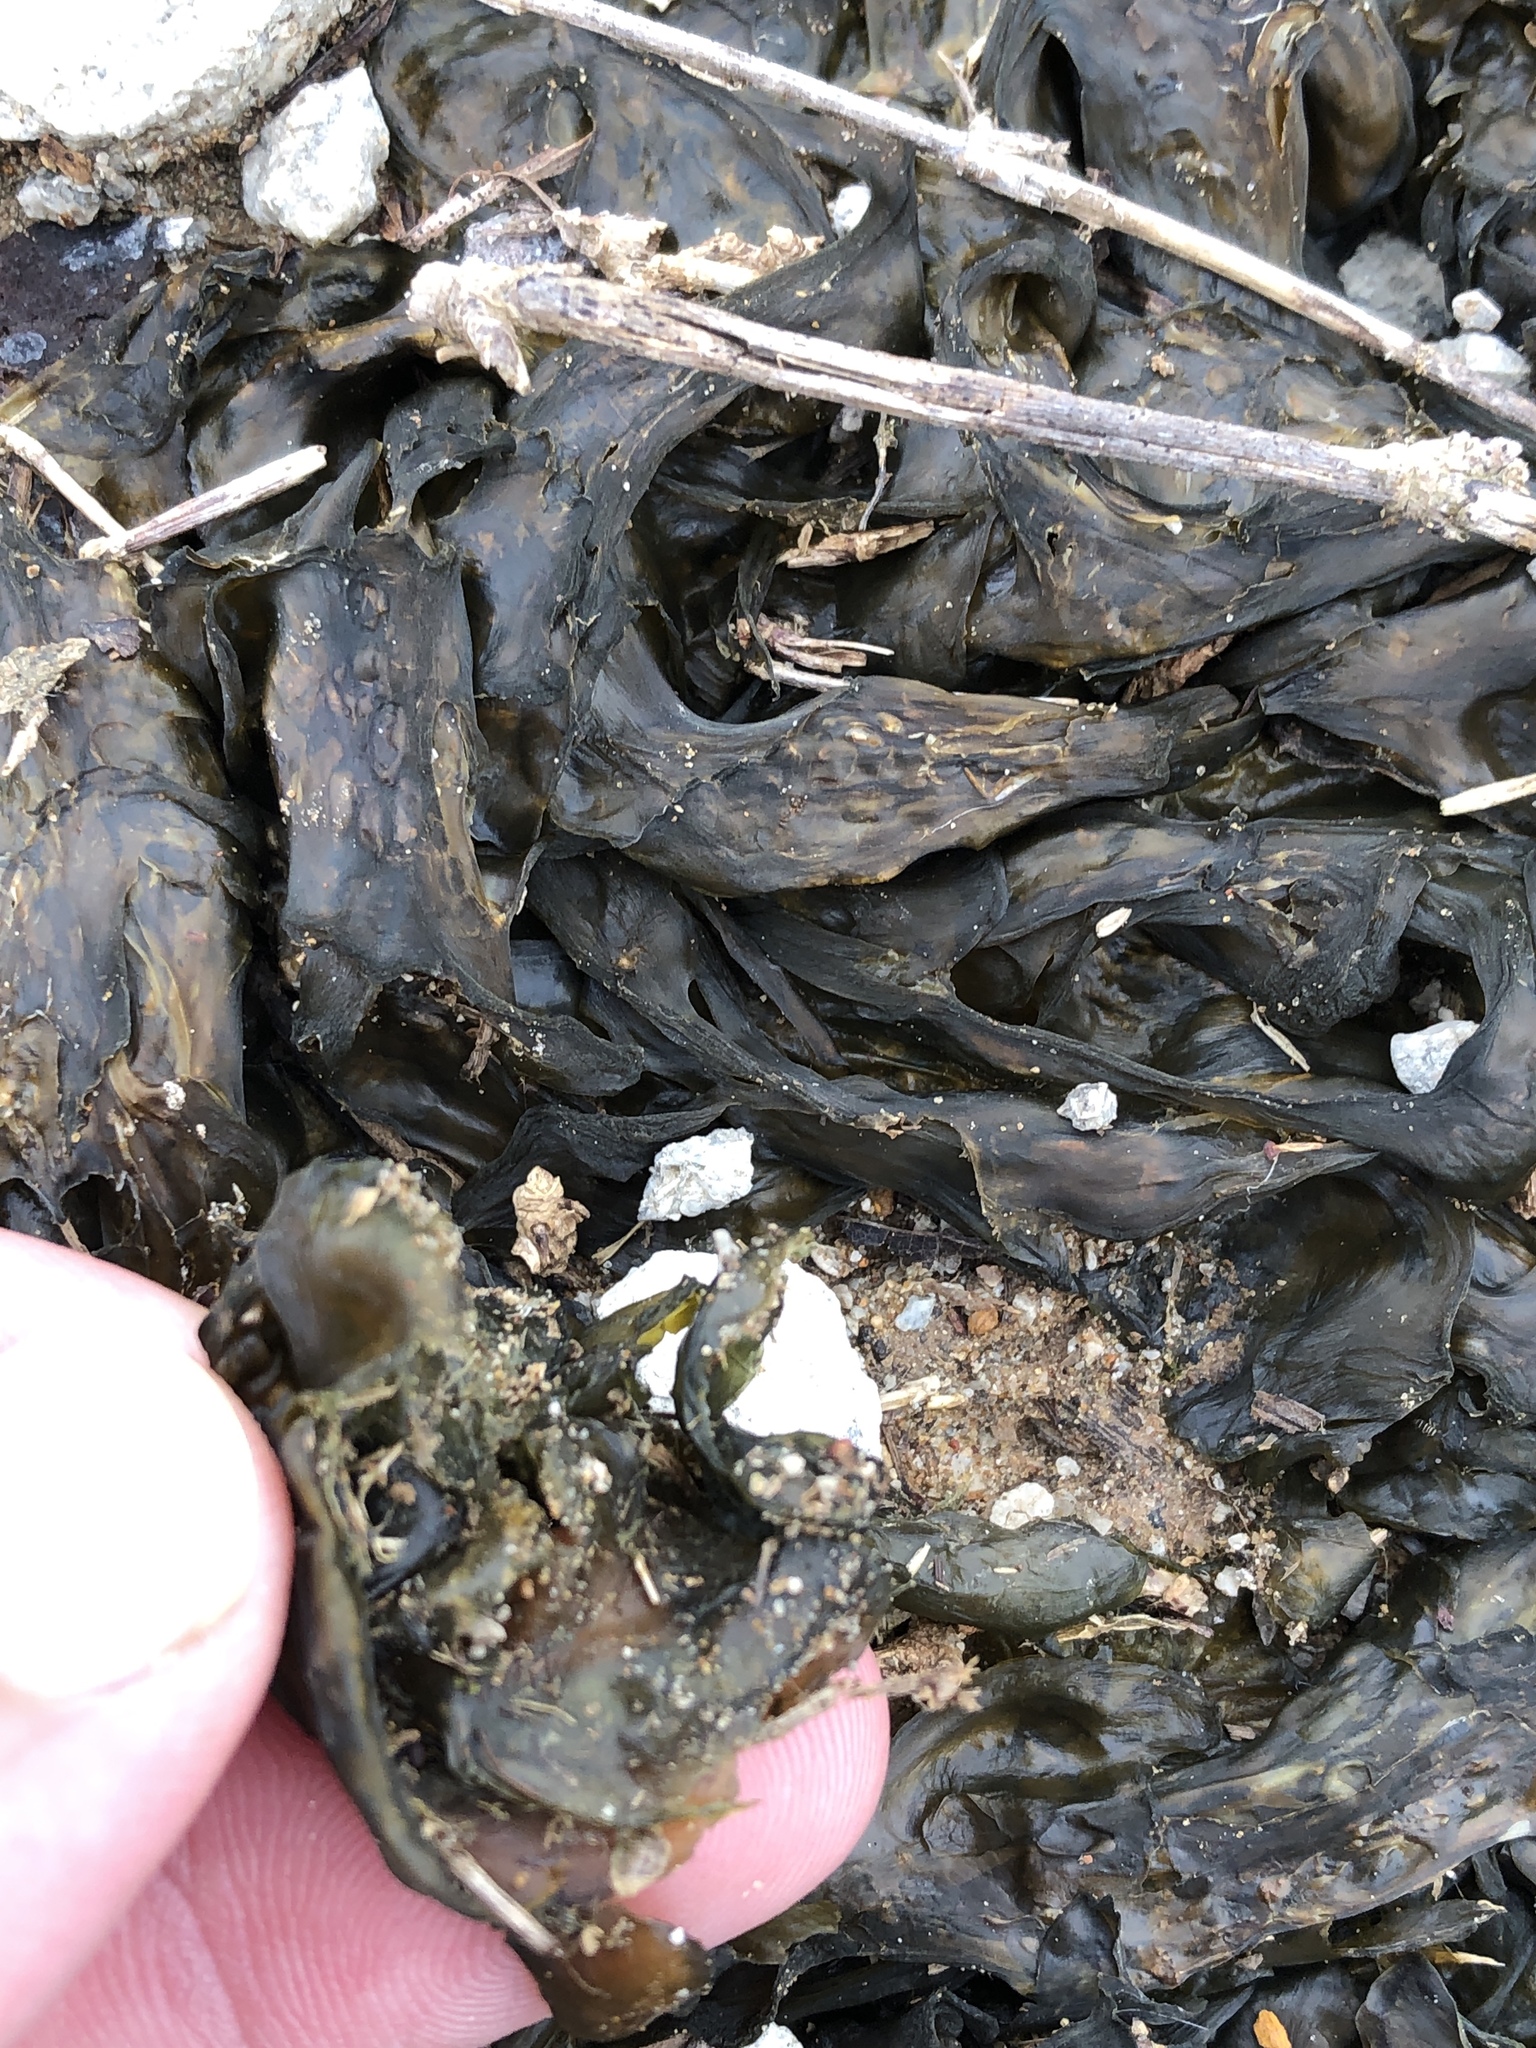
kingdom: Bacteria
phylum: Cyanobacteria
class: Cyanobacteriia
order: Cyanobacteriales
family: Nostocaceae
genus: Nostoc
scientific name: Nostoc commune
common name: Star jelly
